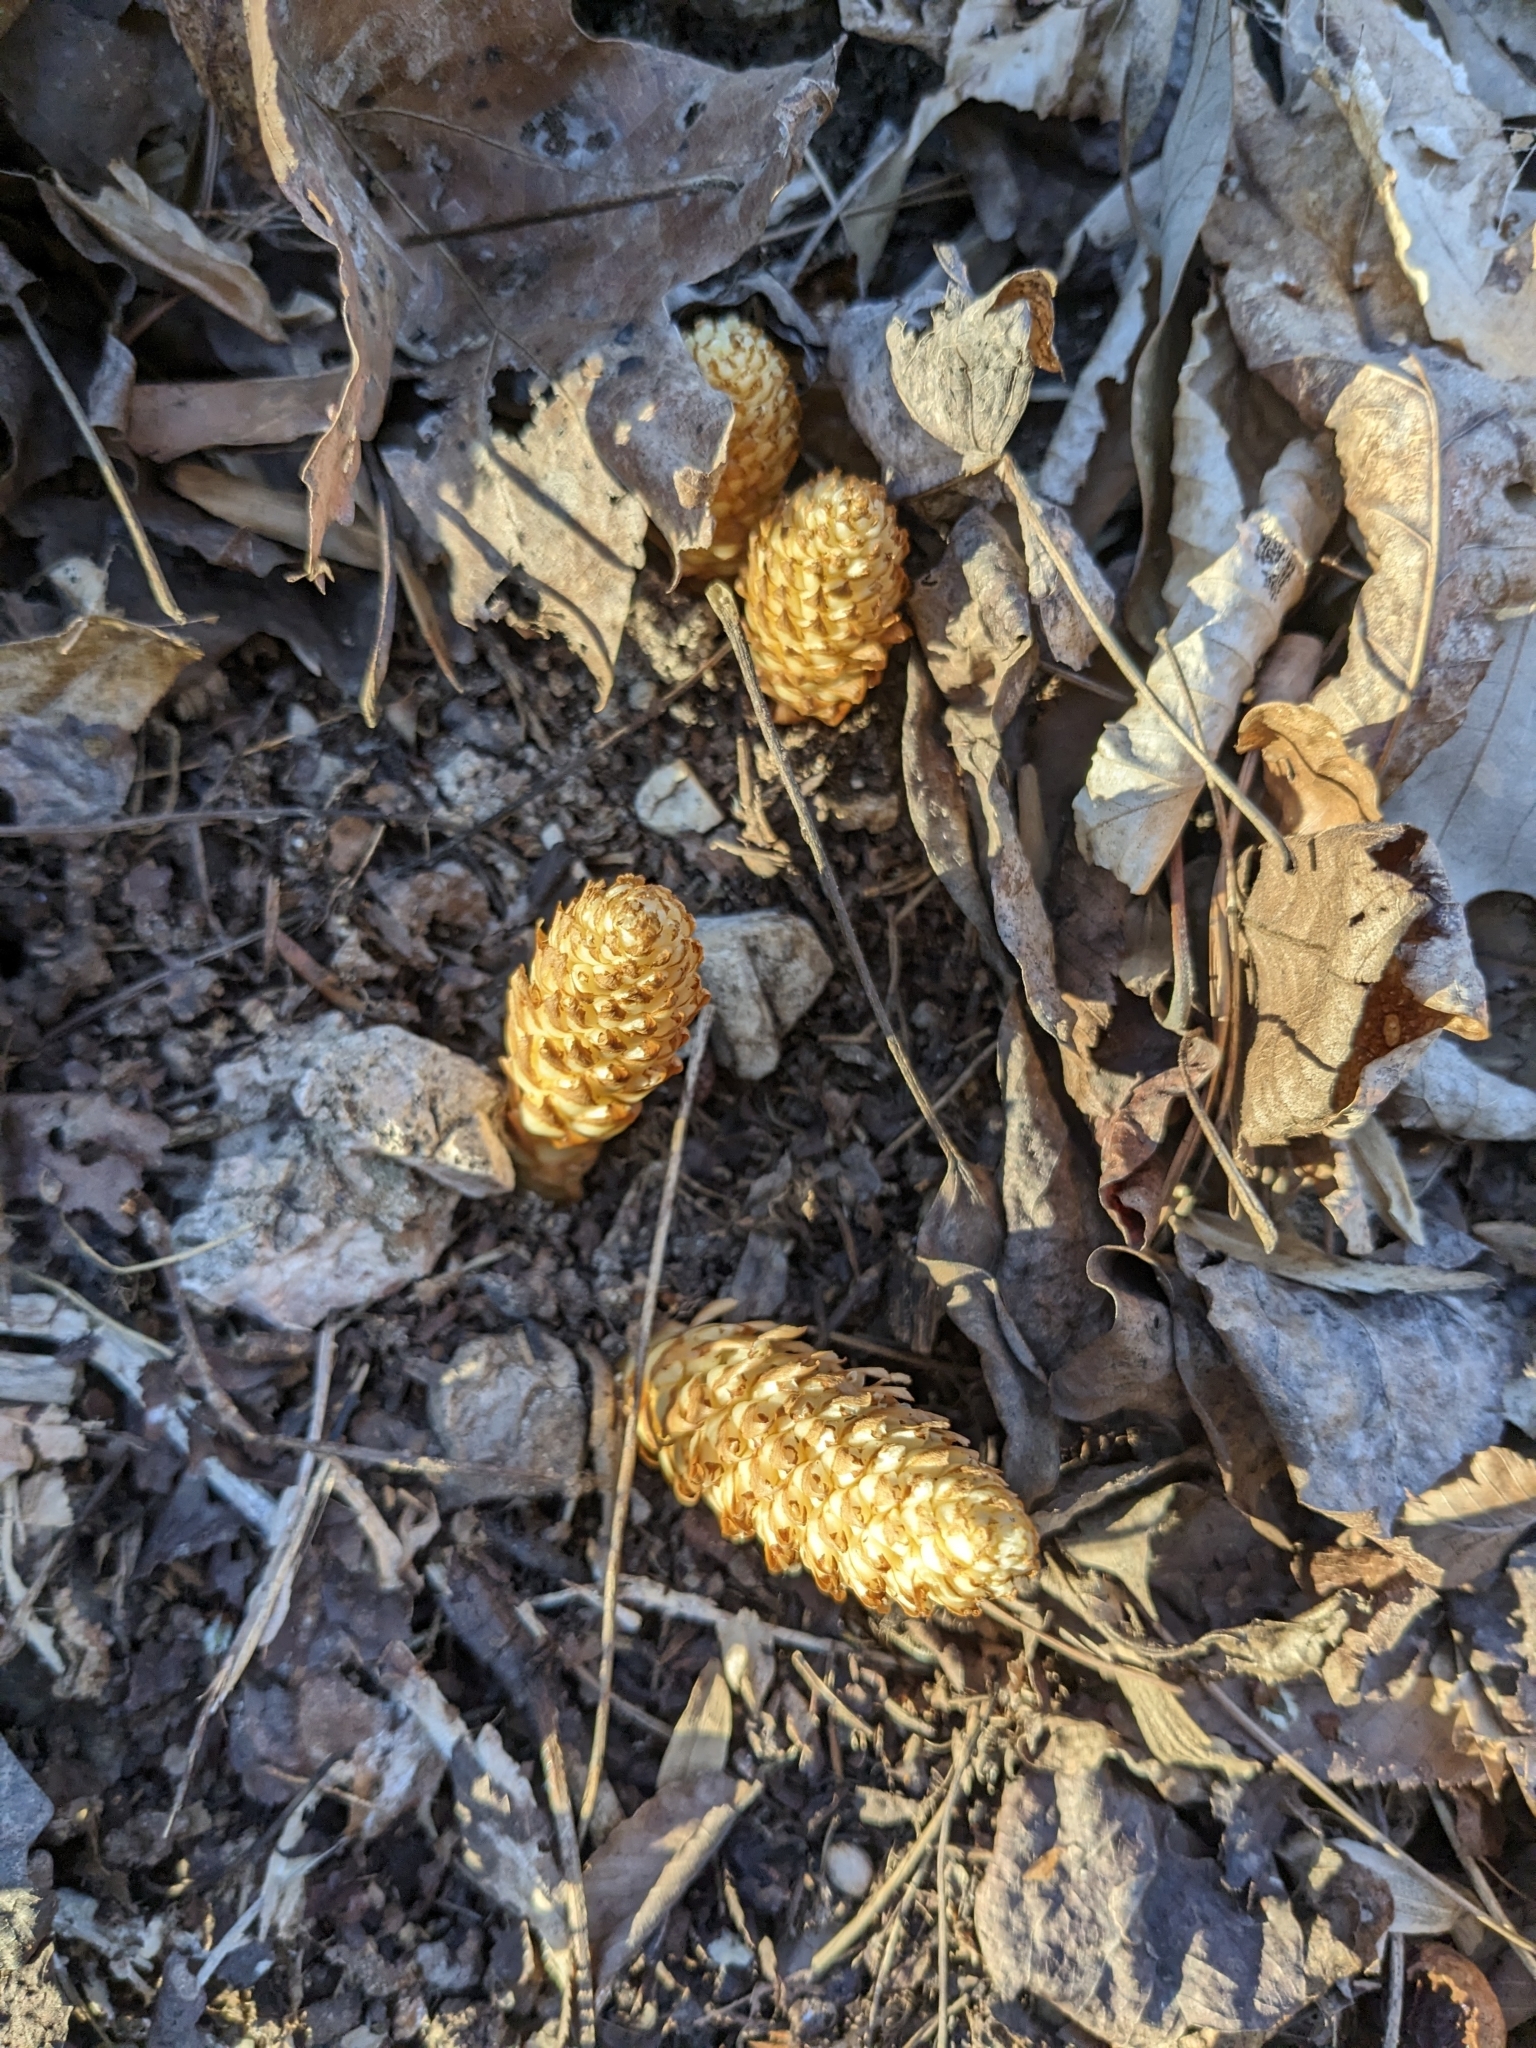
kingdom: Plantae
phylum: Tracheophyta
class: Magnoliopsida
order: Lamiales
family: Orobanchaceae
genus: Conopholis
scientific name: Conopholis americana
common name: American cancer-root
